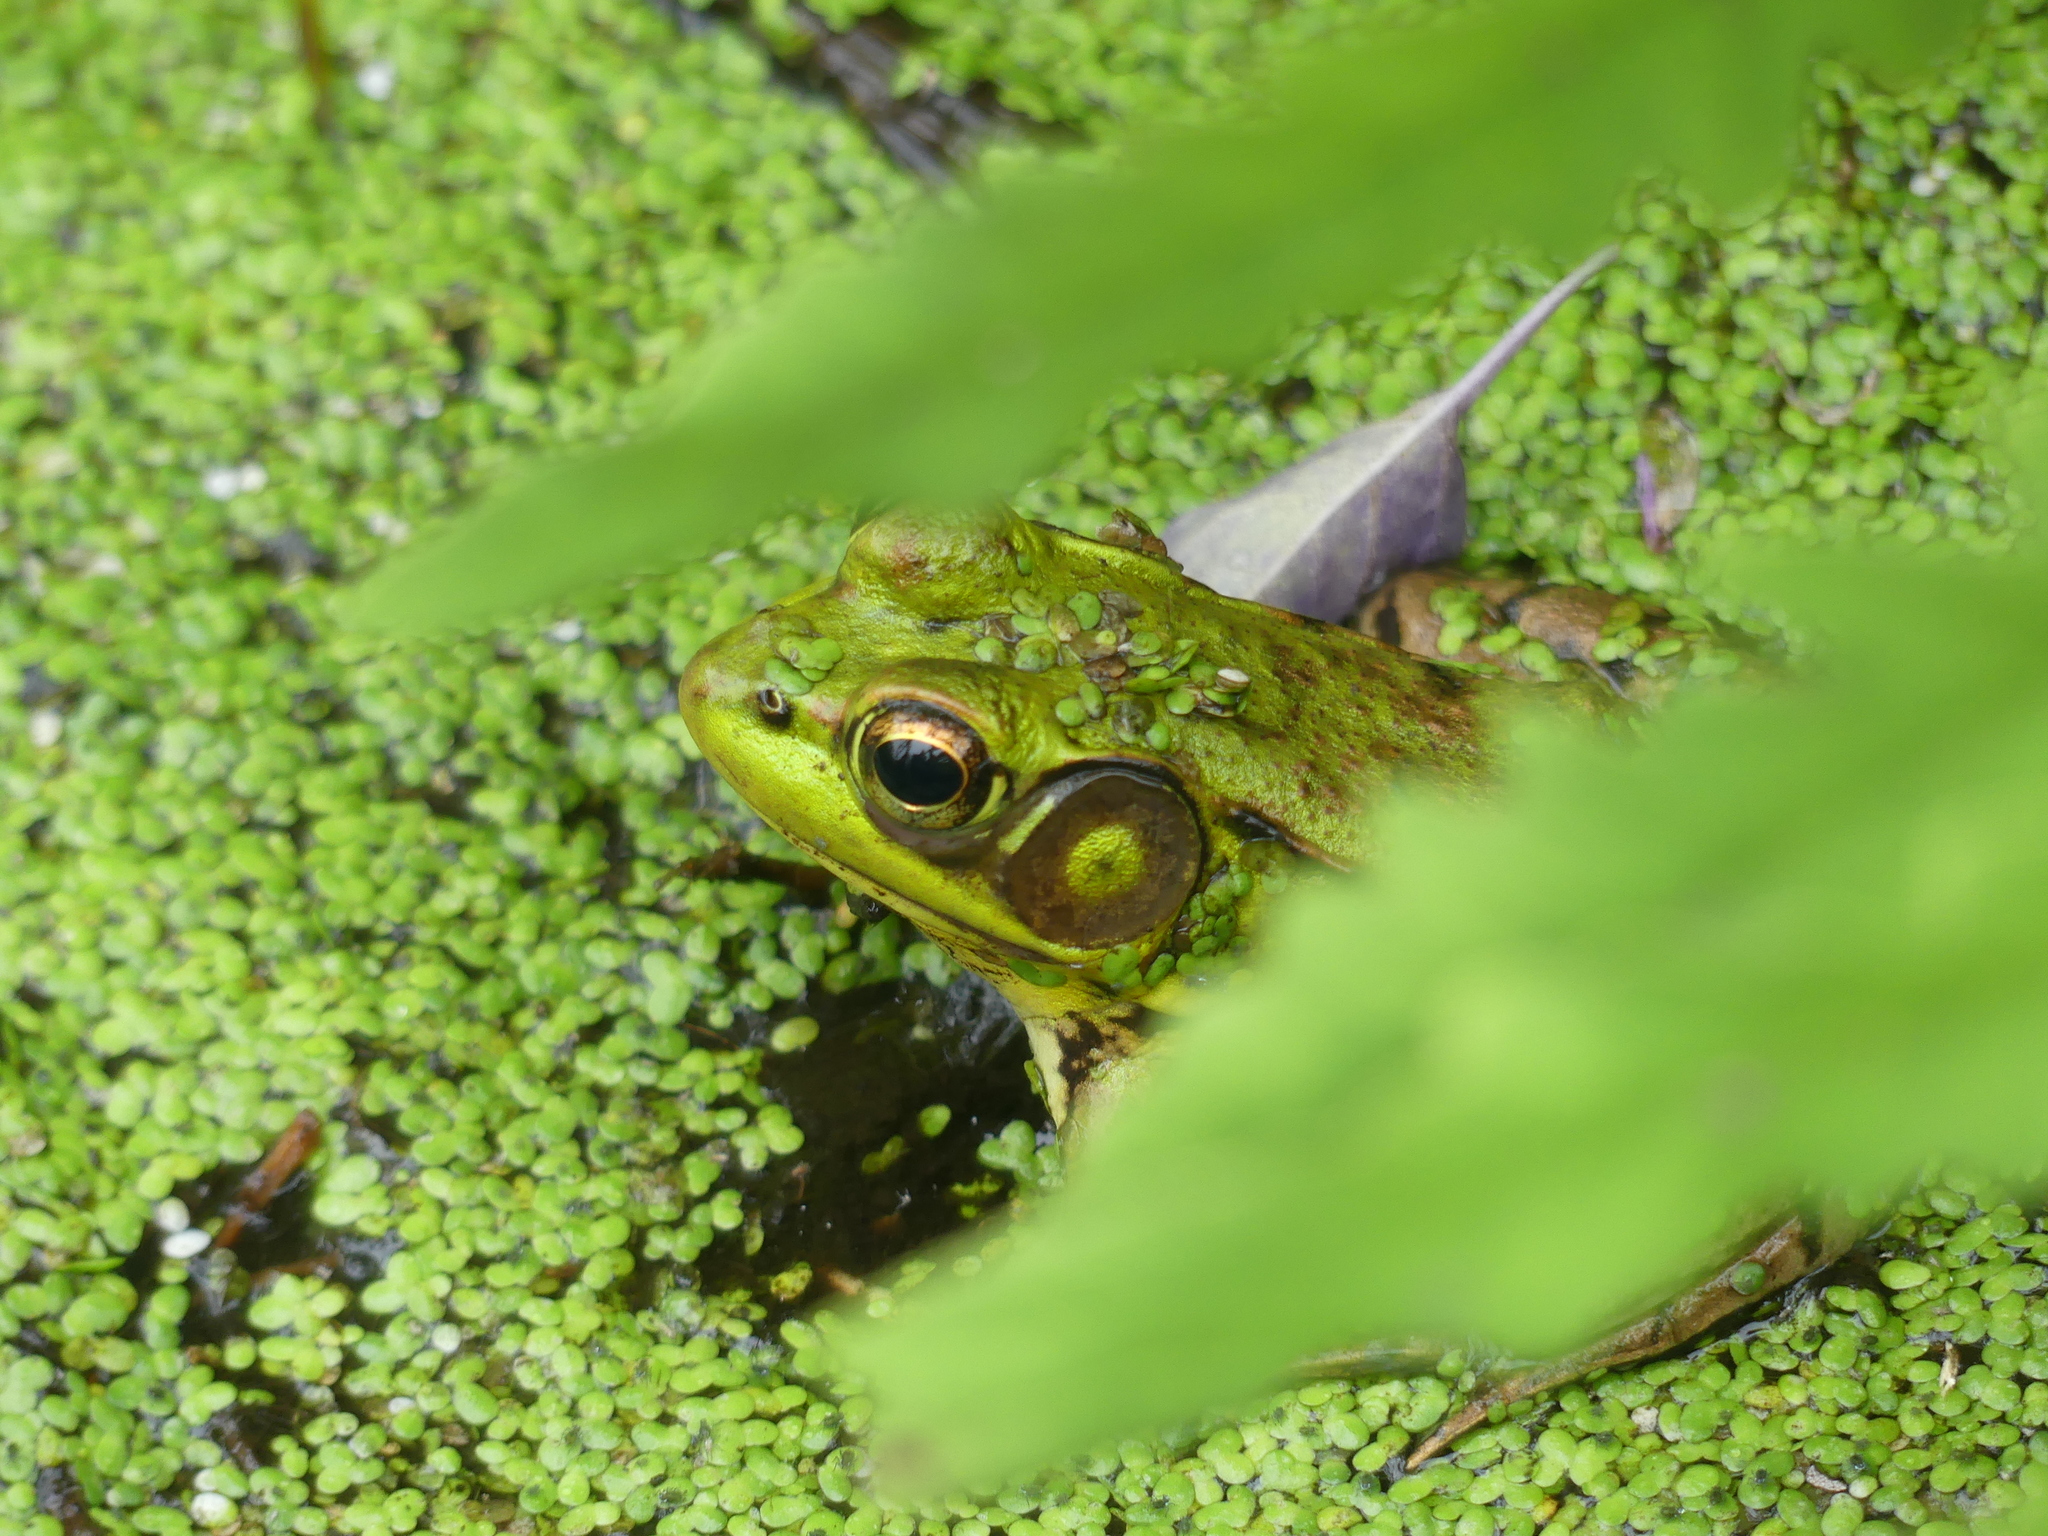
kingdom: Animalia
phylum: Chordata
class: Amphibia
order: Anura
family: Ranidae
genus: Lithobates
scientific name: Lithobates clamitans
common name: Green frog
